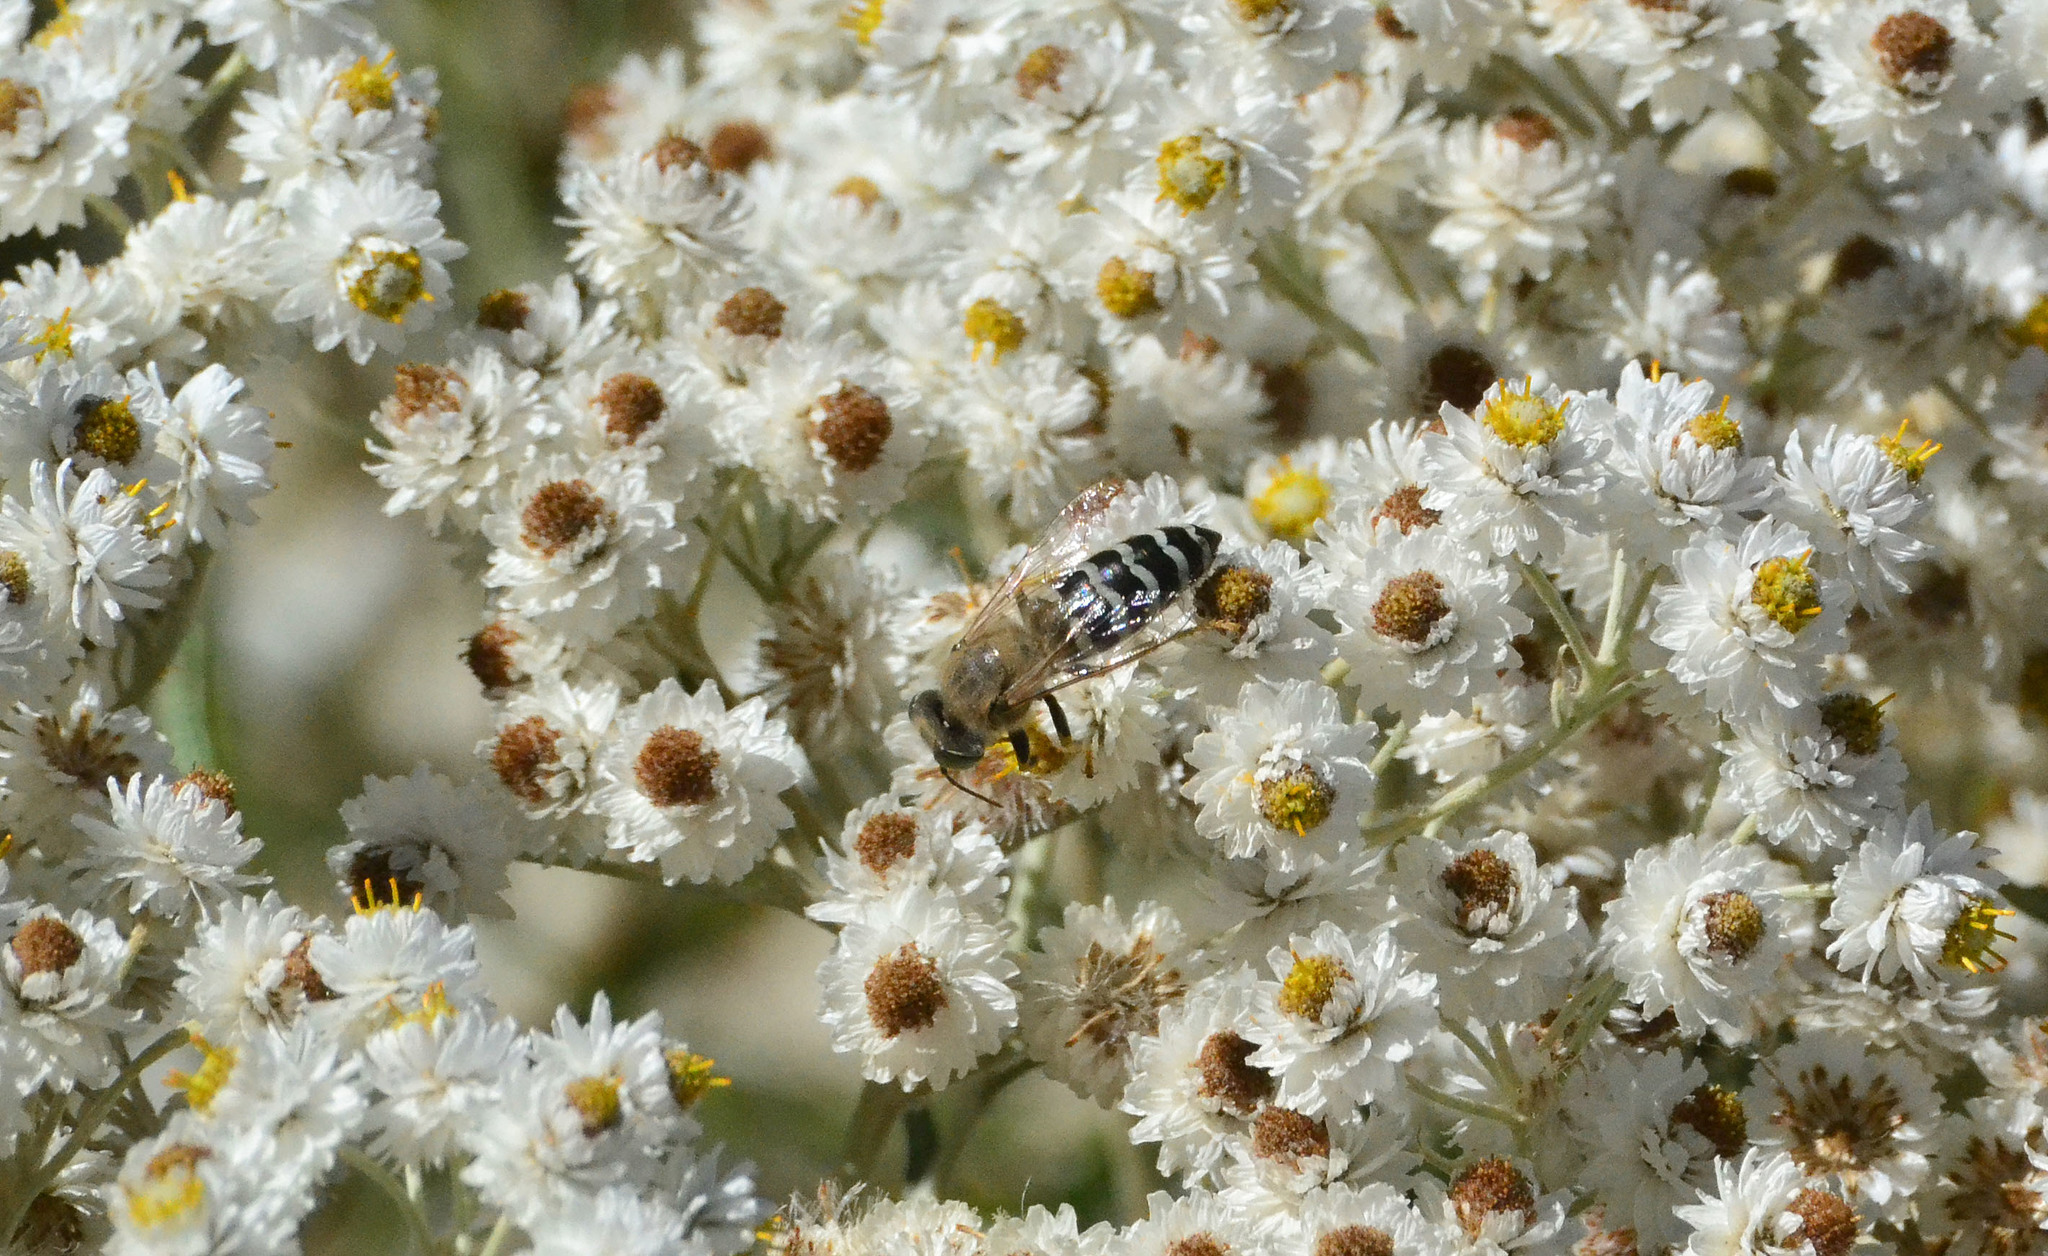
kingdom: Animalia
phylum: Arthropoda
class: Insecta
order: Hymenoptera
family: Crabronidae
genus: Bembix
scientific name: Bembix americana
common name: American sand wasp
